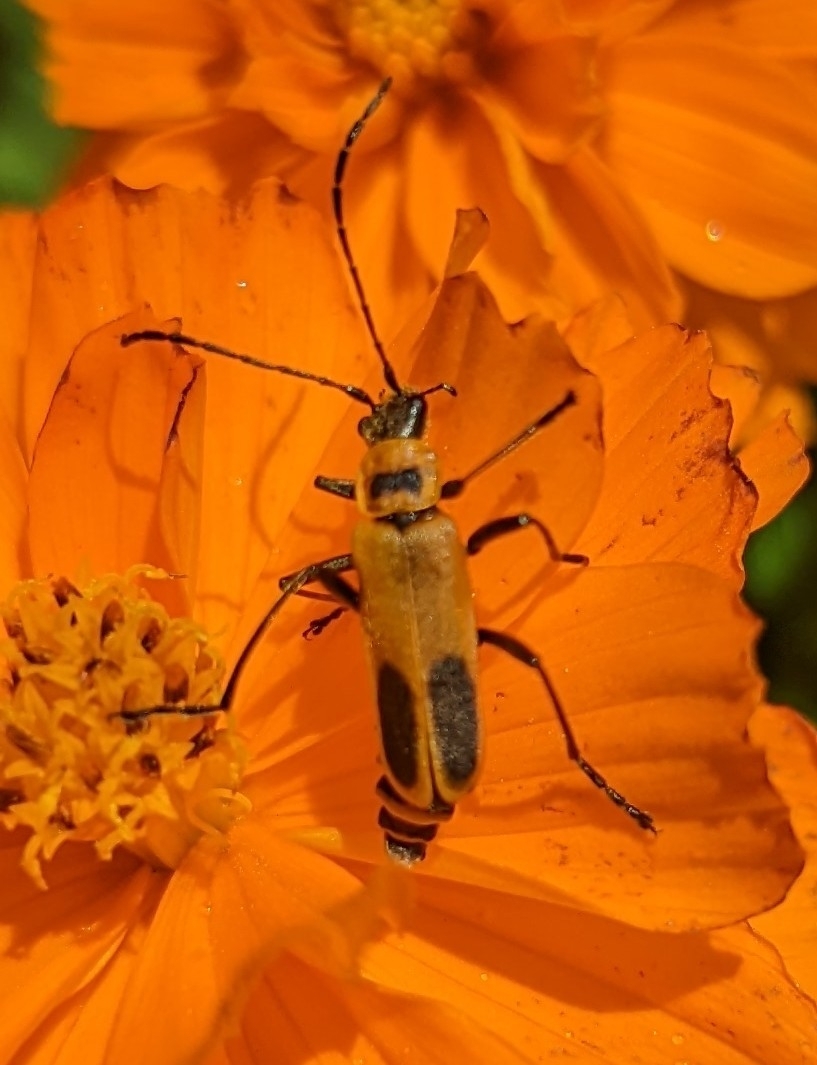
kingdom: Animalia
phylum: Arthropoda
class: Insecta
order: Coleoptera
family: Cantharidae
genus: Chauliognathus
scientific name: Chauliognathus pensylvanicus
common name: Goldenrod soldier beetle
